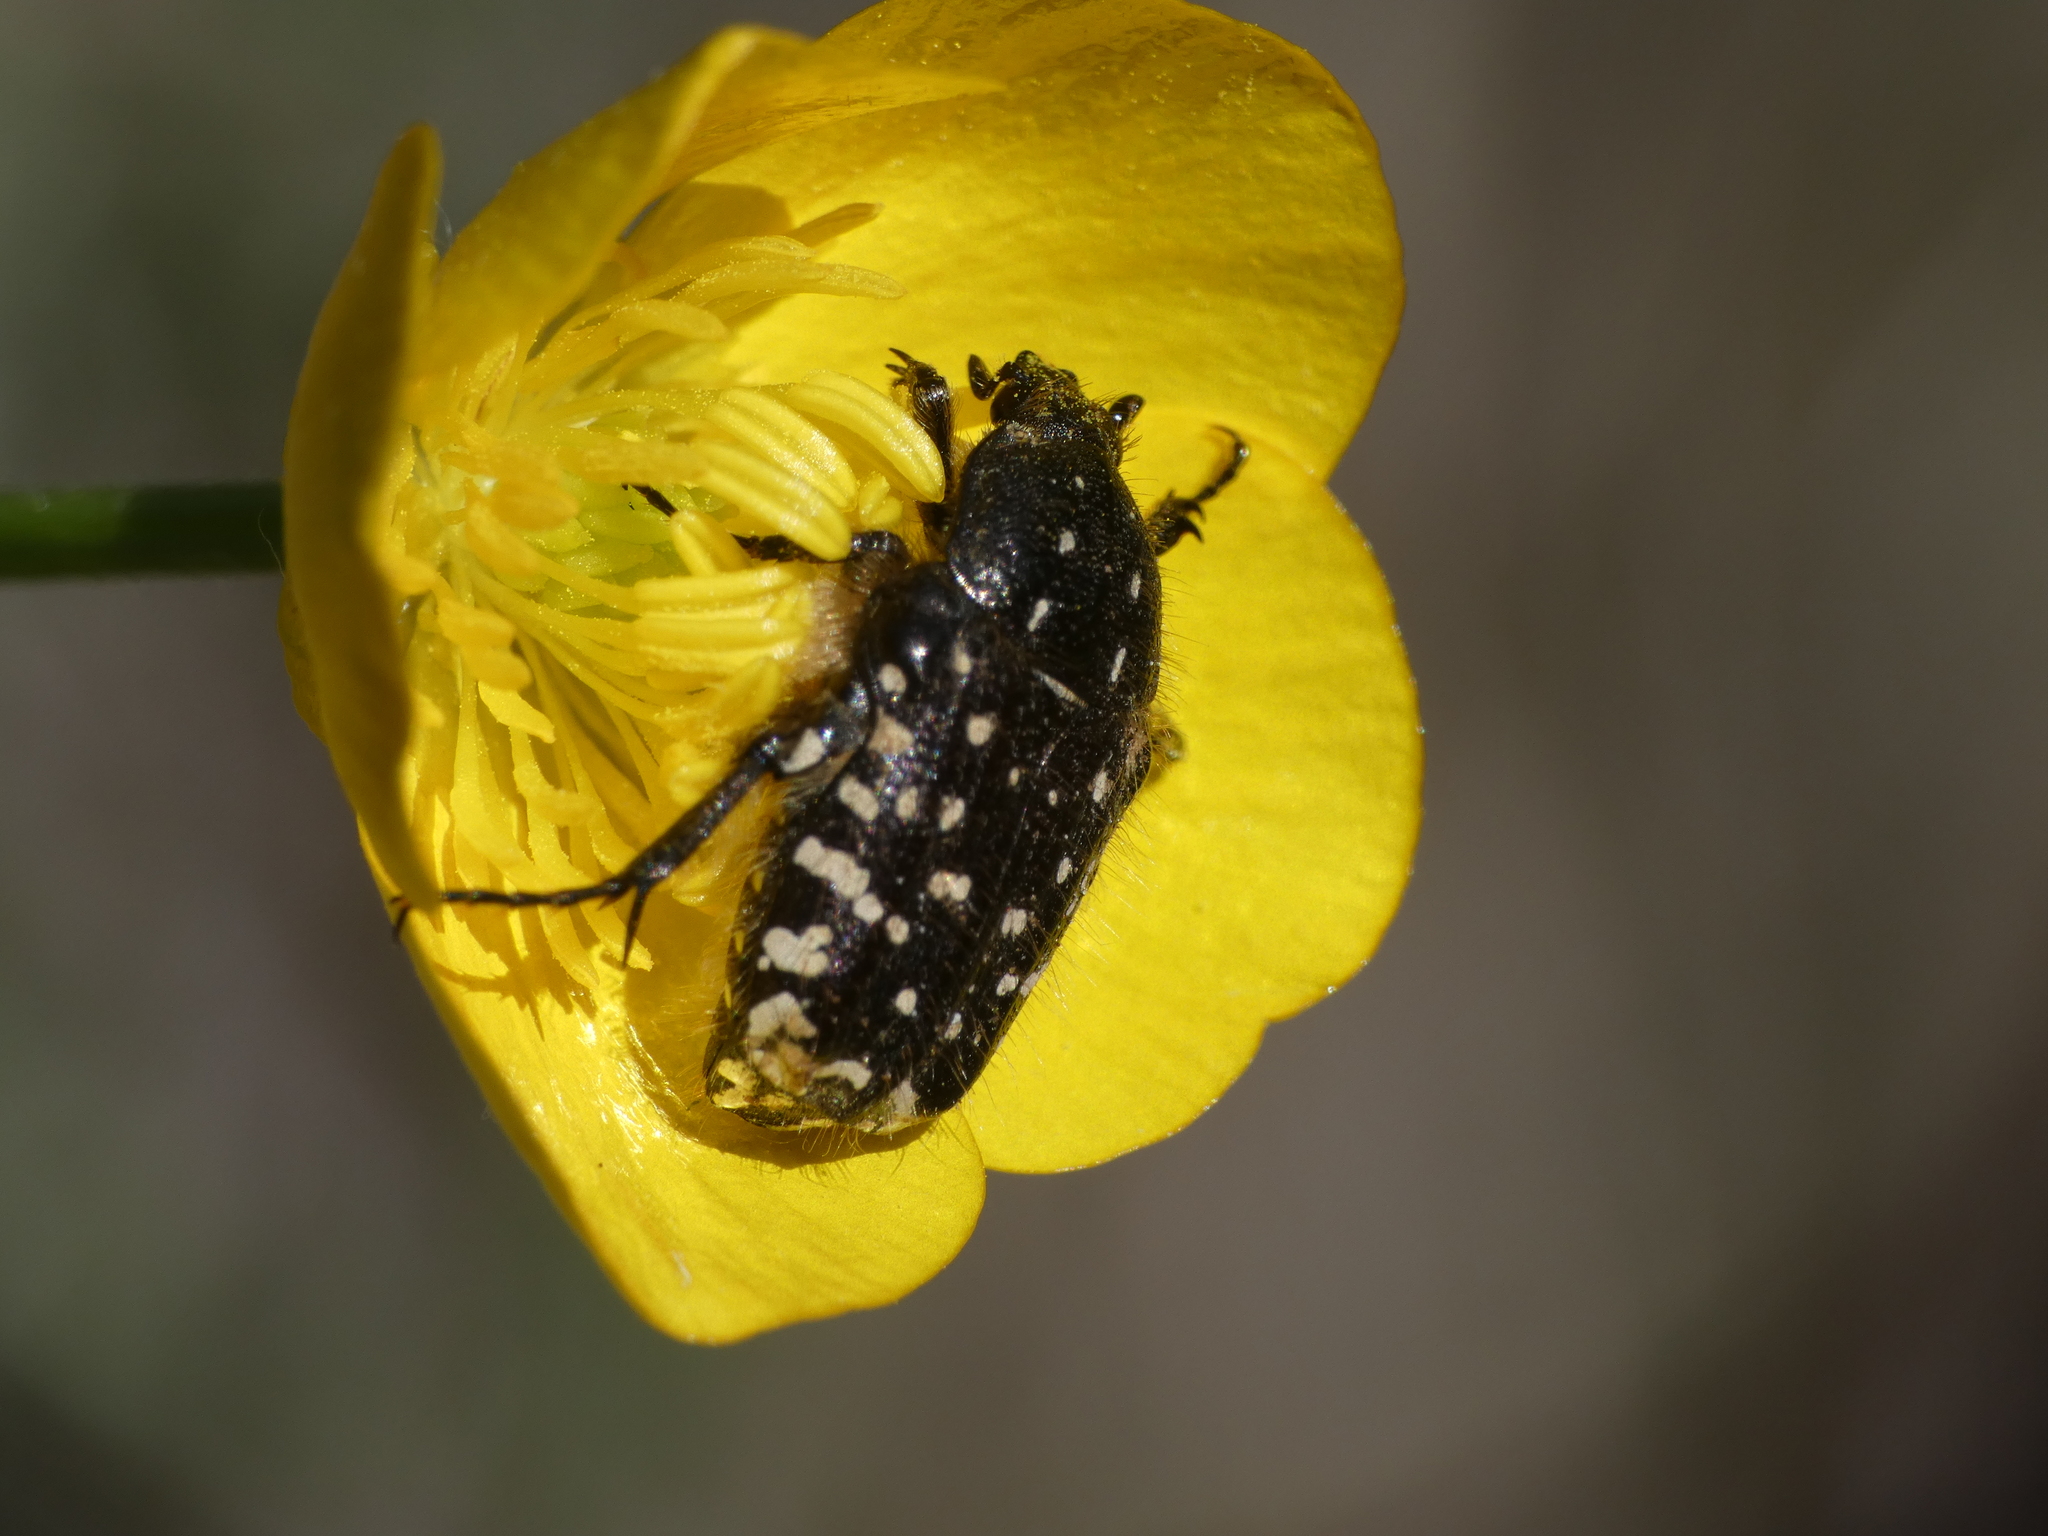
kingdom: Animalia
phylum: Arthropoda
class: Insecta
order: Coleoptera
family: Scarabaeidae
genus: Oxythyrea
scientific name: Oxythyrea funesta
